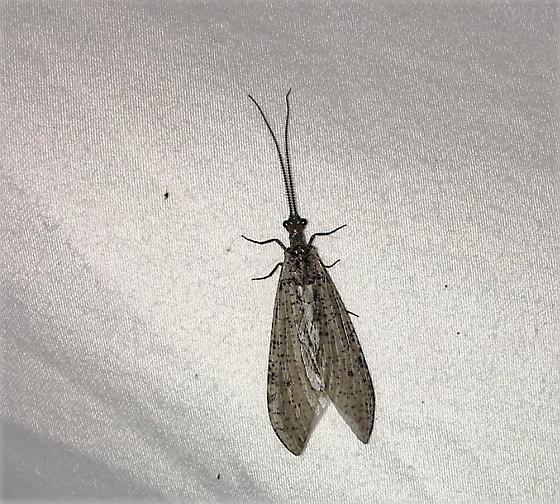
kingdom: Animalia
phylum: Arthropoda
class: Insecta
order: Megaloptera
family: Corydalidae
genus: Neohermes
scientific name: Neohermes concolor
